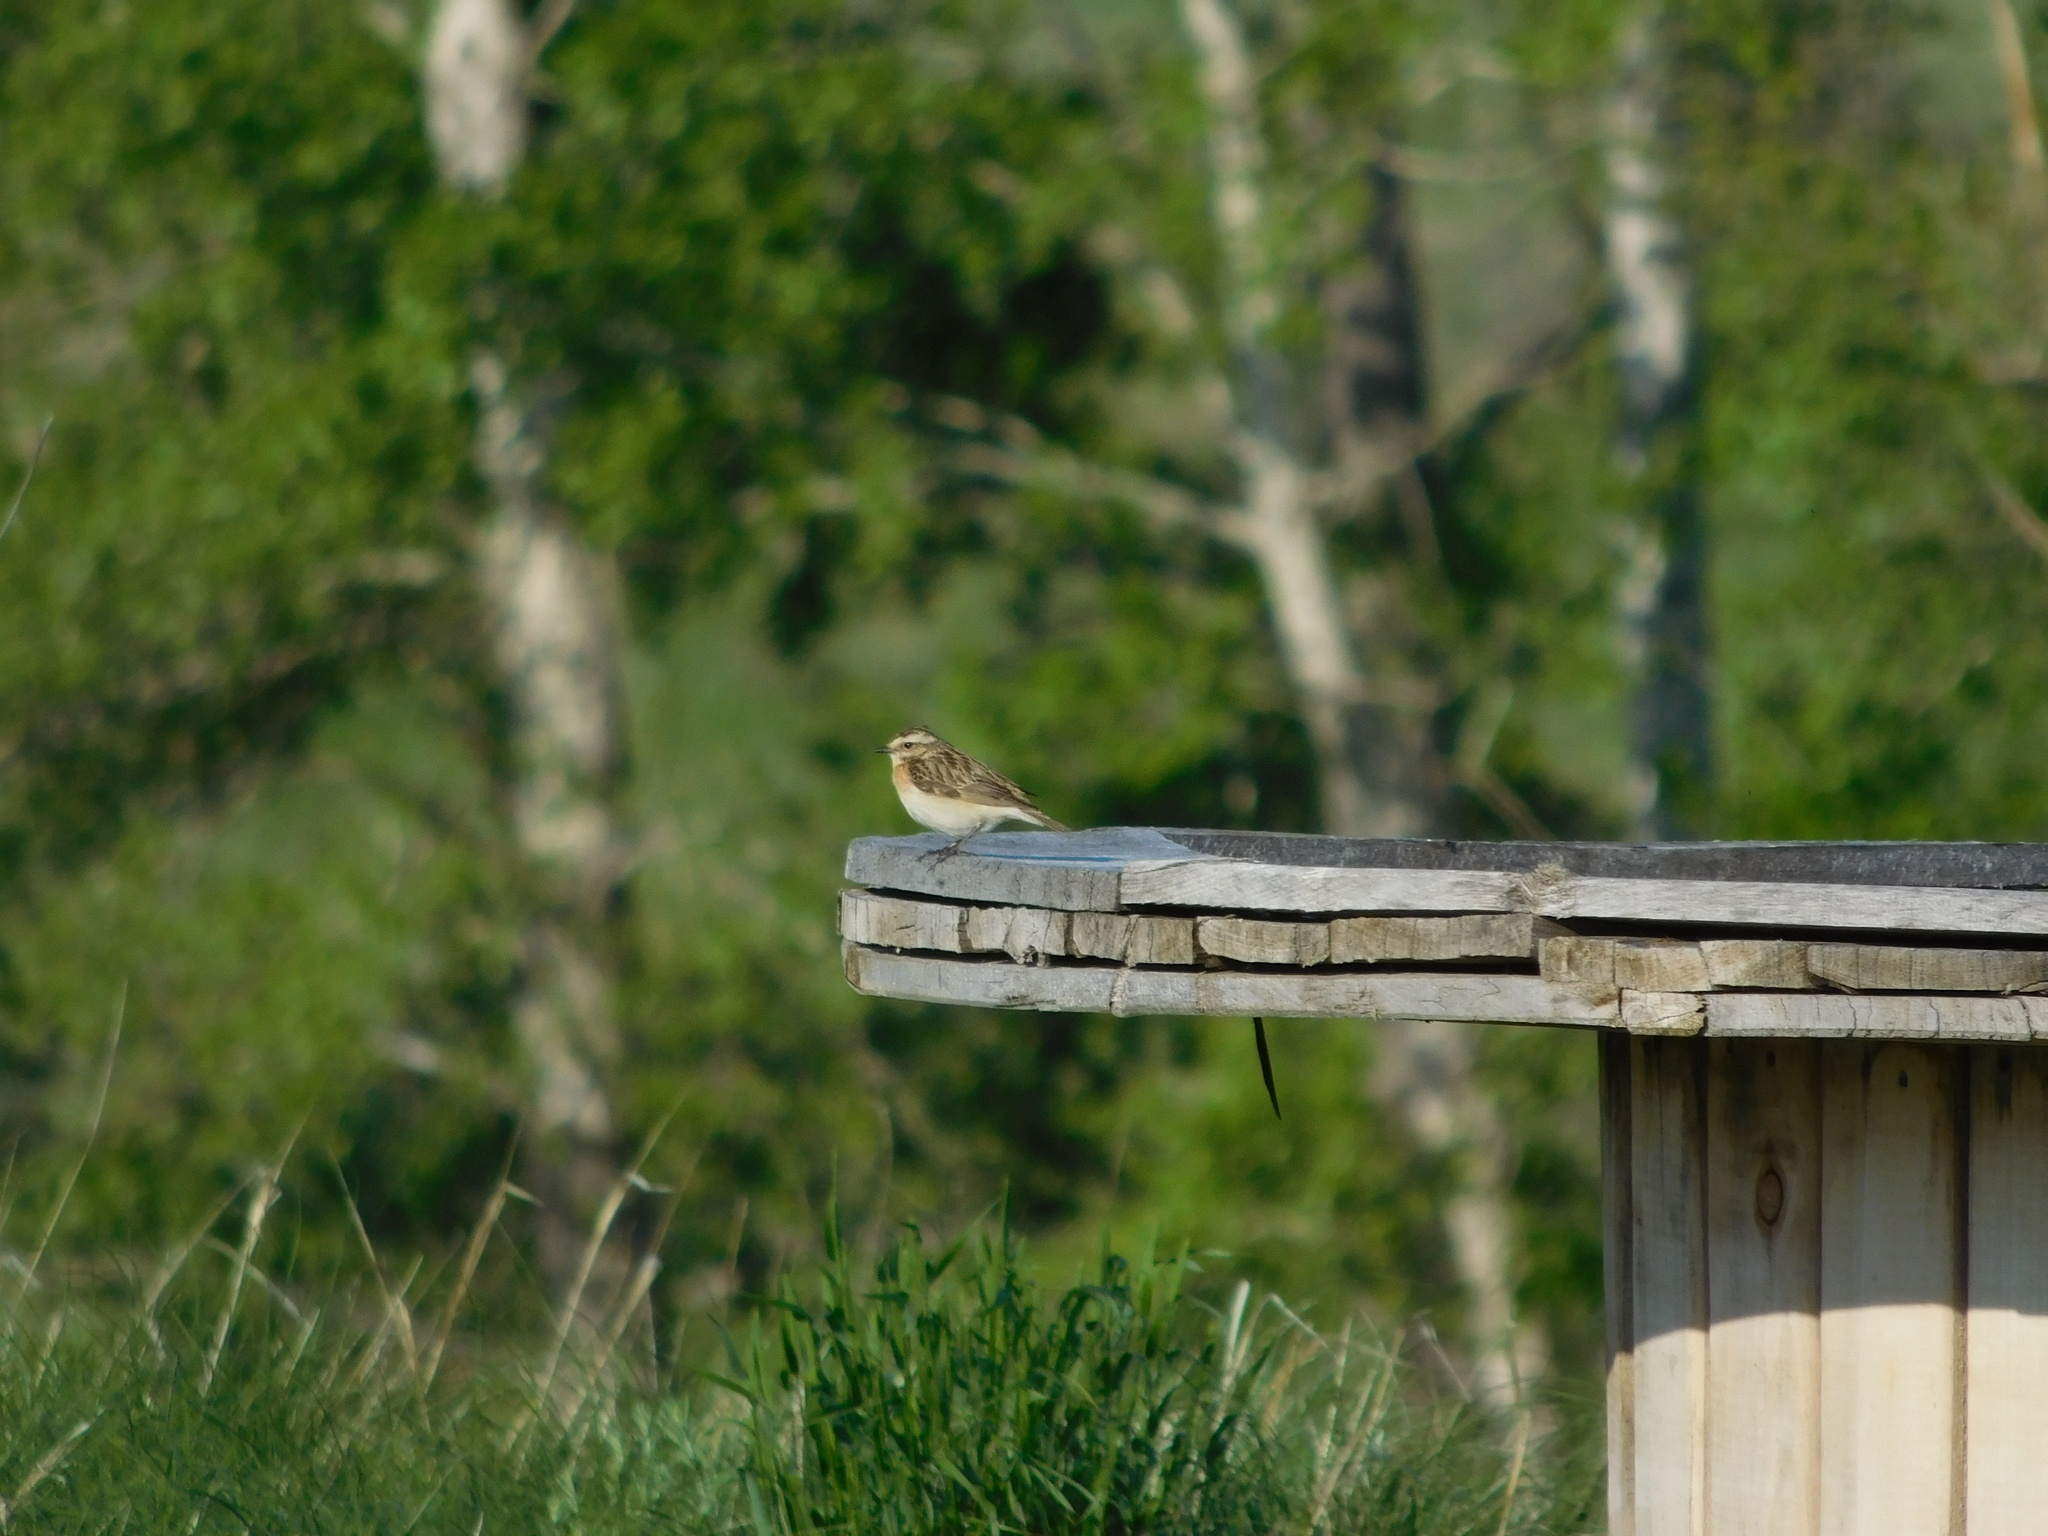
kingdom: Animalia
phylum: Chordata
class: Aves
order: Passeriformes
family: Muscicapidae
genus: Saxicola
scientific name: Saxicola rubetra
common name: Whinchat
